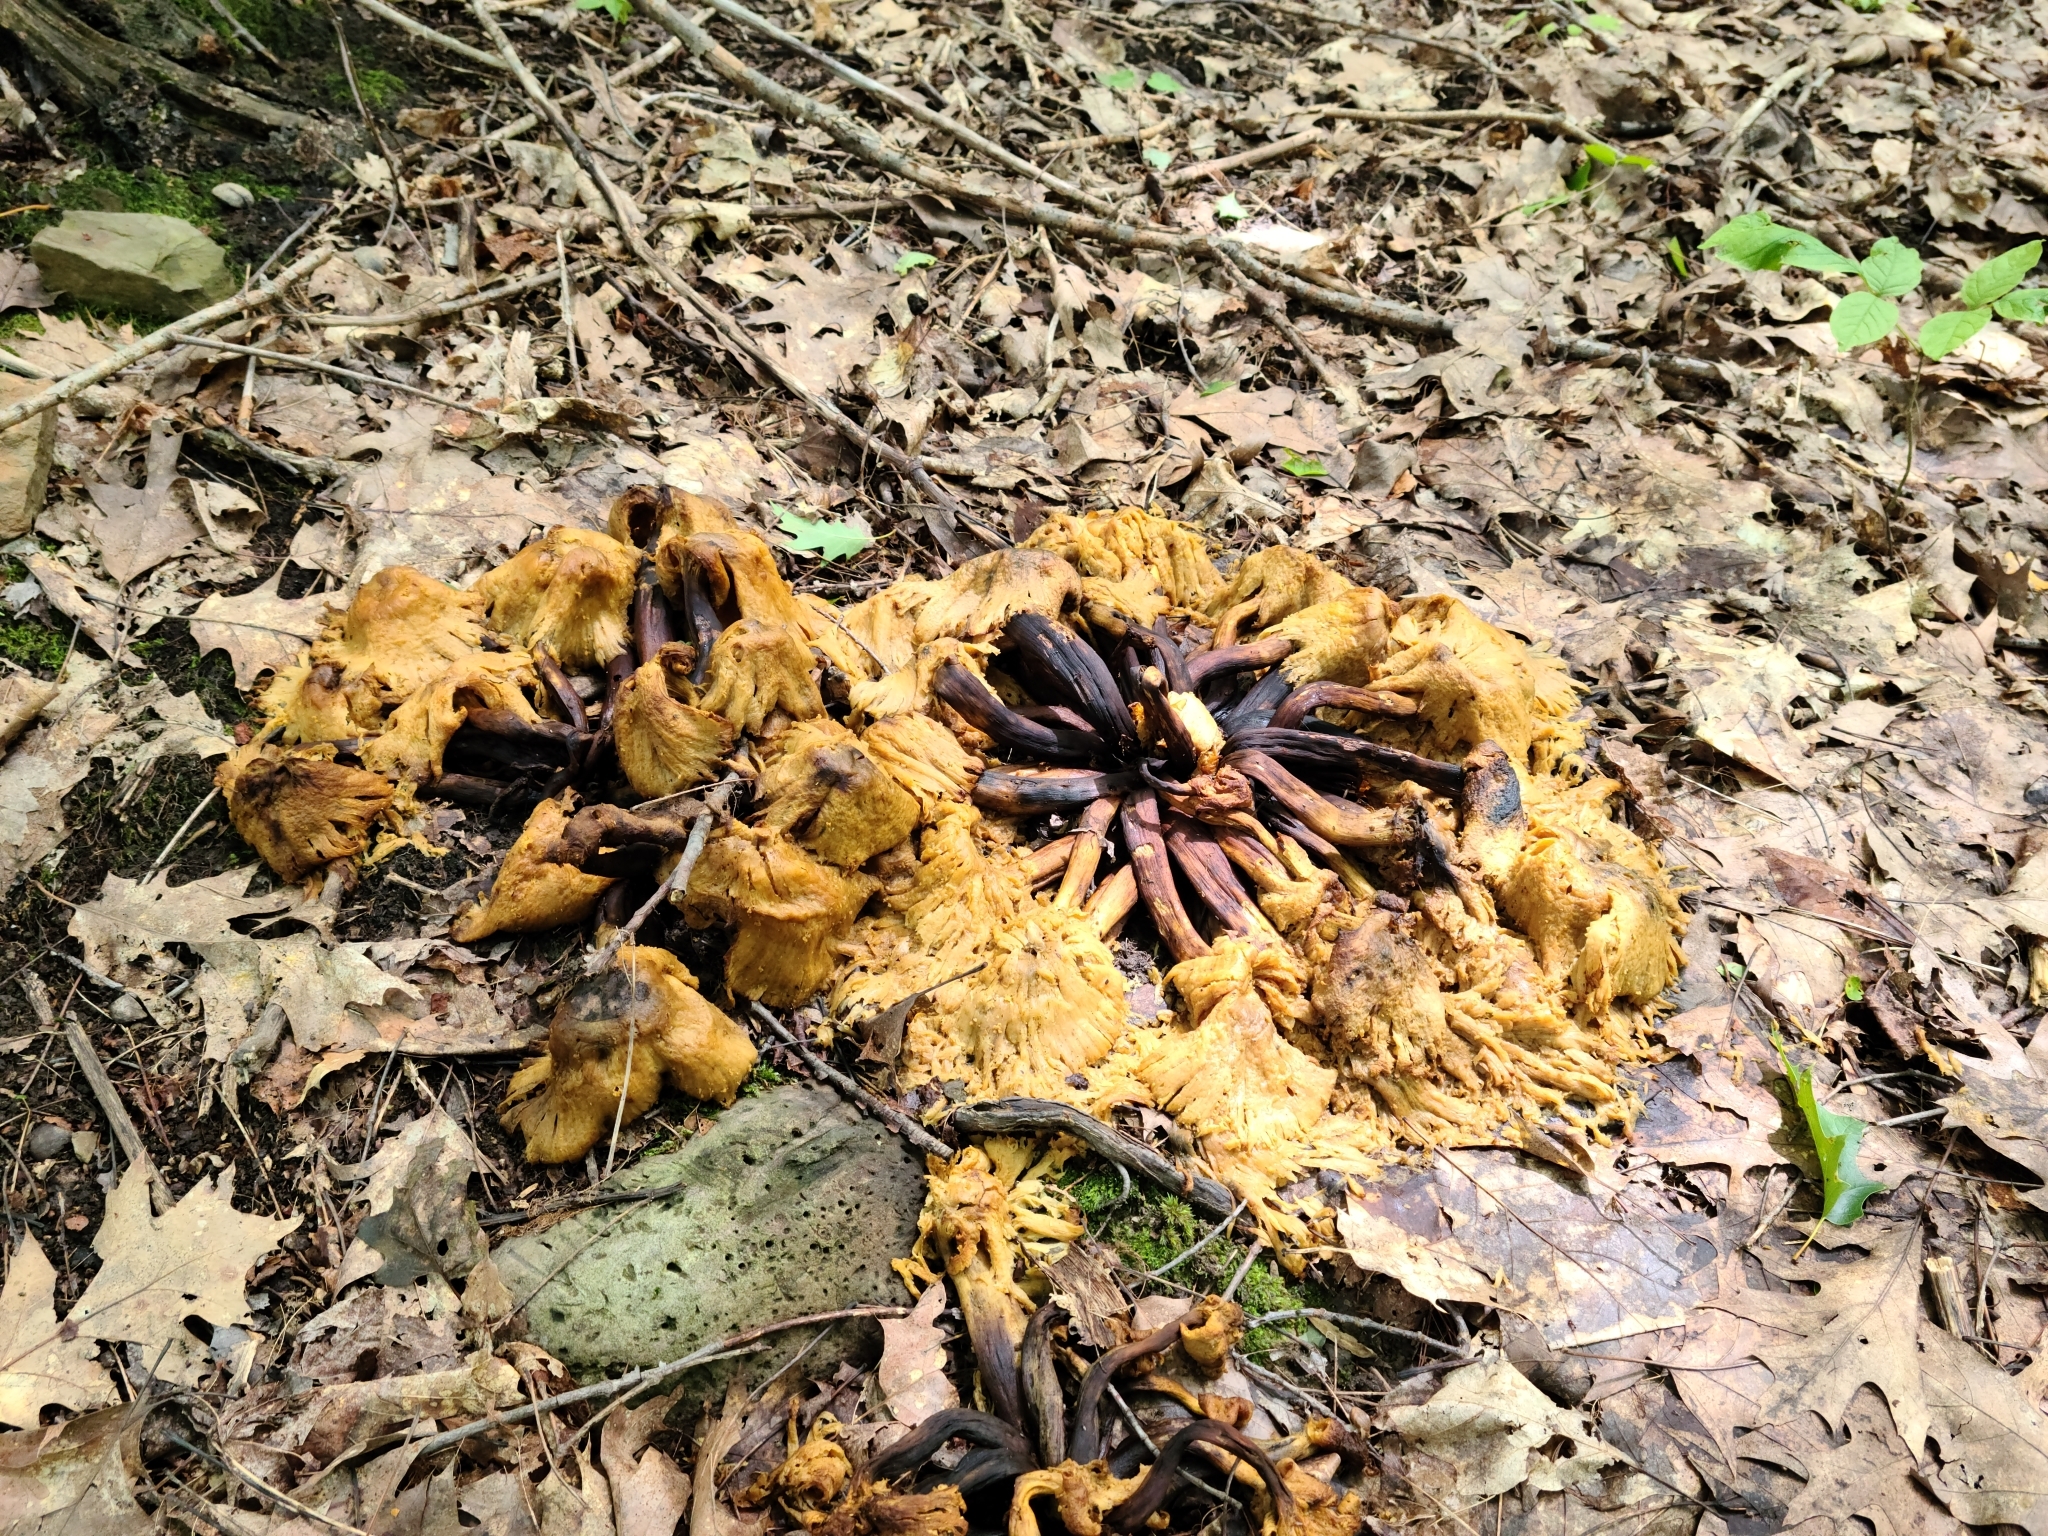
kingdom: Fungi
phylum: Basidiomycota
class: Agaricomycetes
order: Agaricales
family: Omphalotaceae
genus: Omphalotus
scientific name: Omphalotus illudens
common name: Jack o lantern
